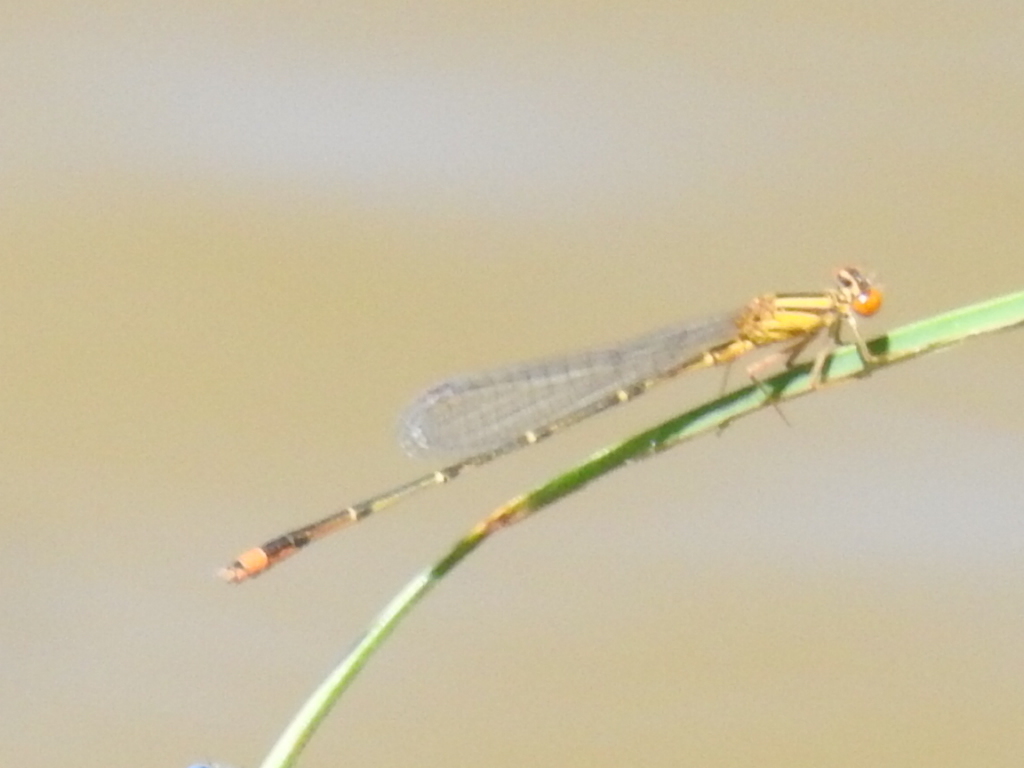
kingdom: Animalia
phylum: Arthropoda
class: Insecta
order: Odonata
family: Coenagrionidae
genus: Enallagma
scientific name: Enallagma signatum
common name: Orange bluet
